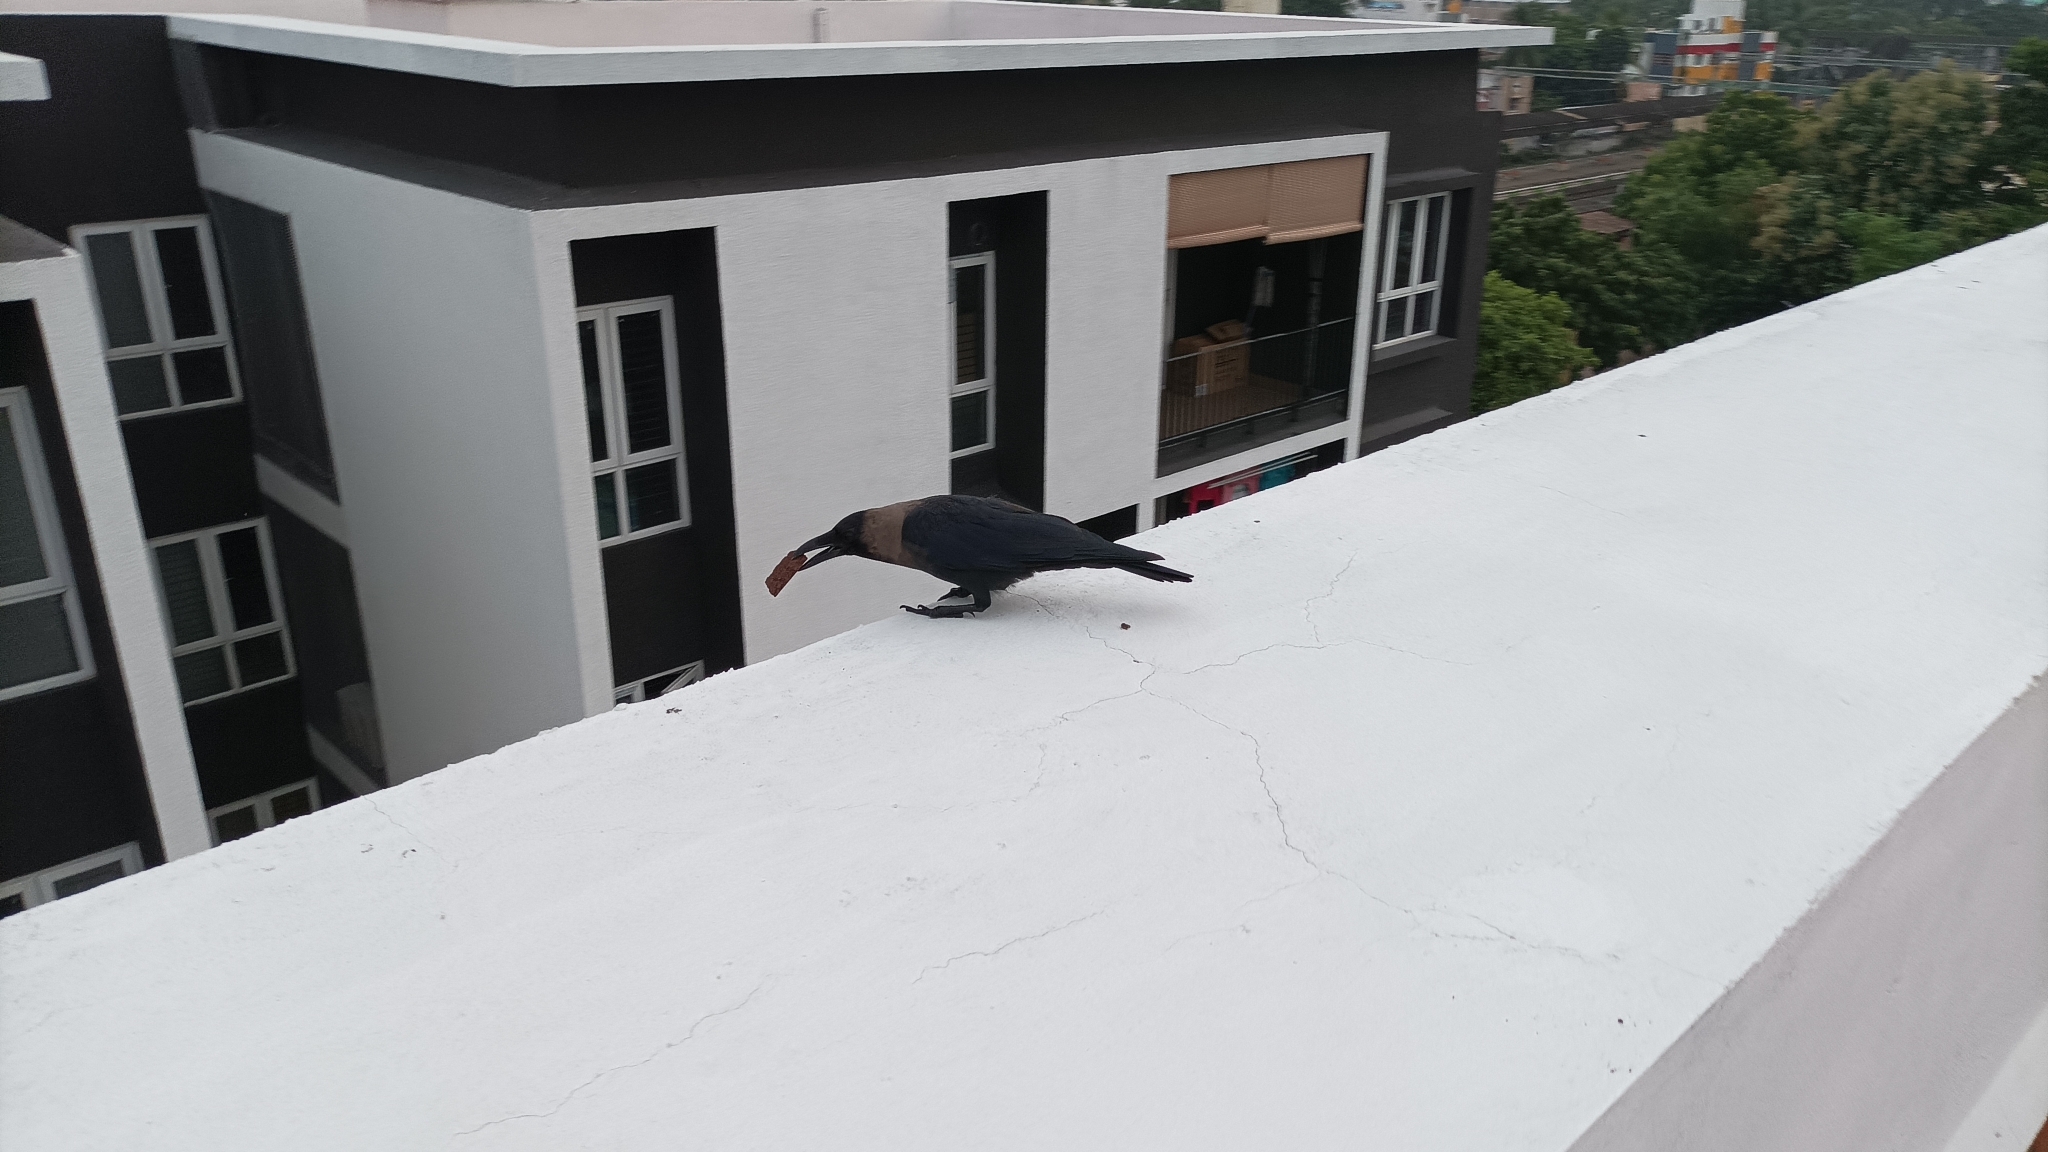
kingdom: Animalia
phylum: Chordata
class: Aves
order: Passeriformes
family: Corvidae
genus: Corvus
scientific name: Corvus splendens
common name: House crow
